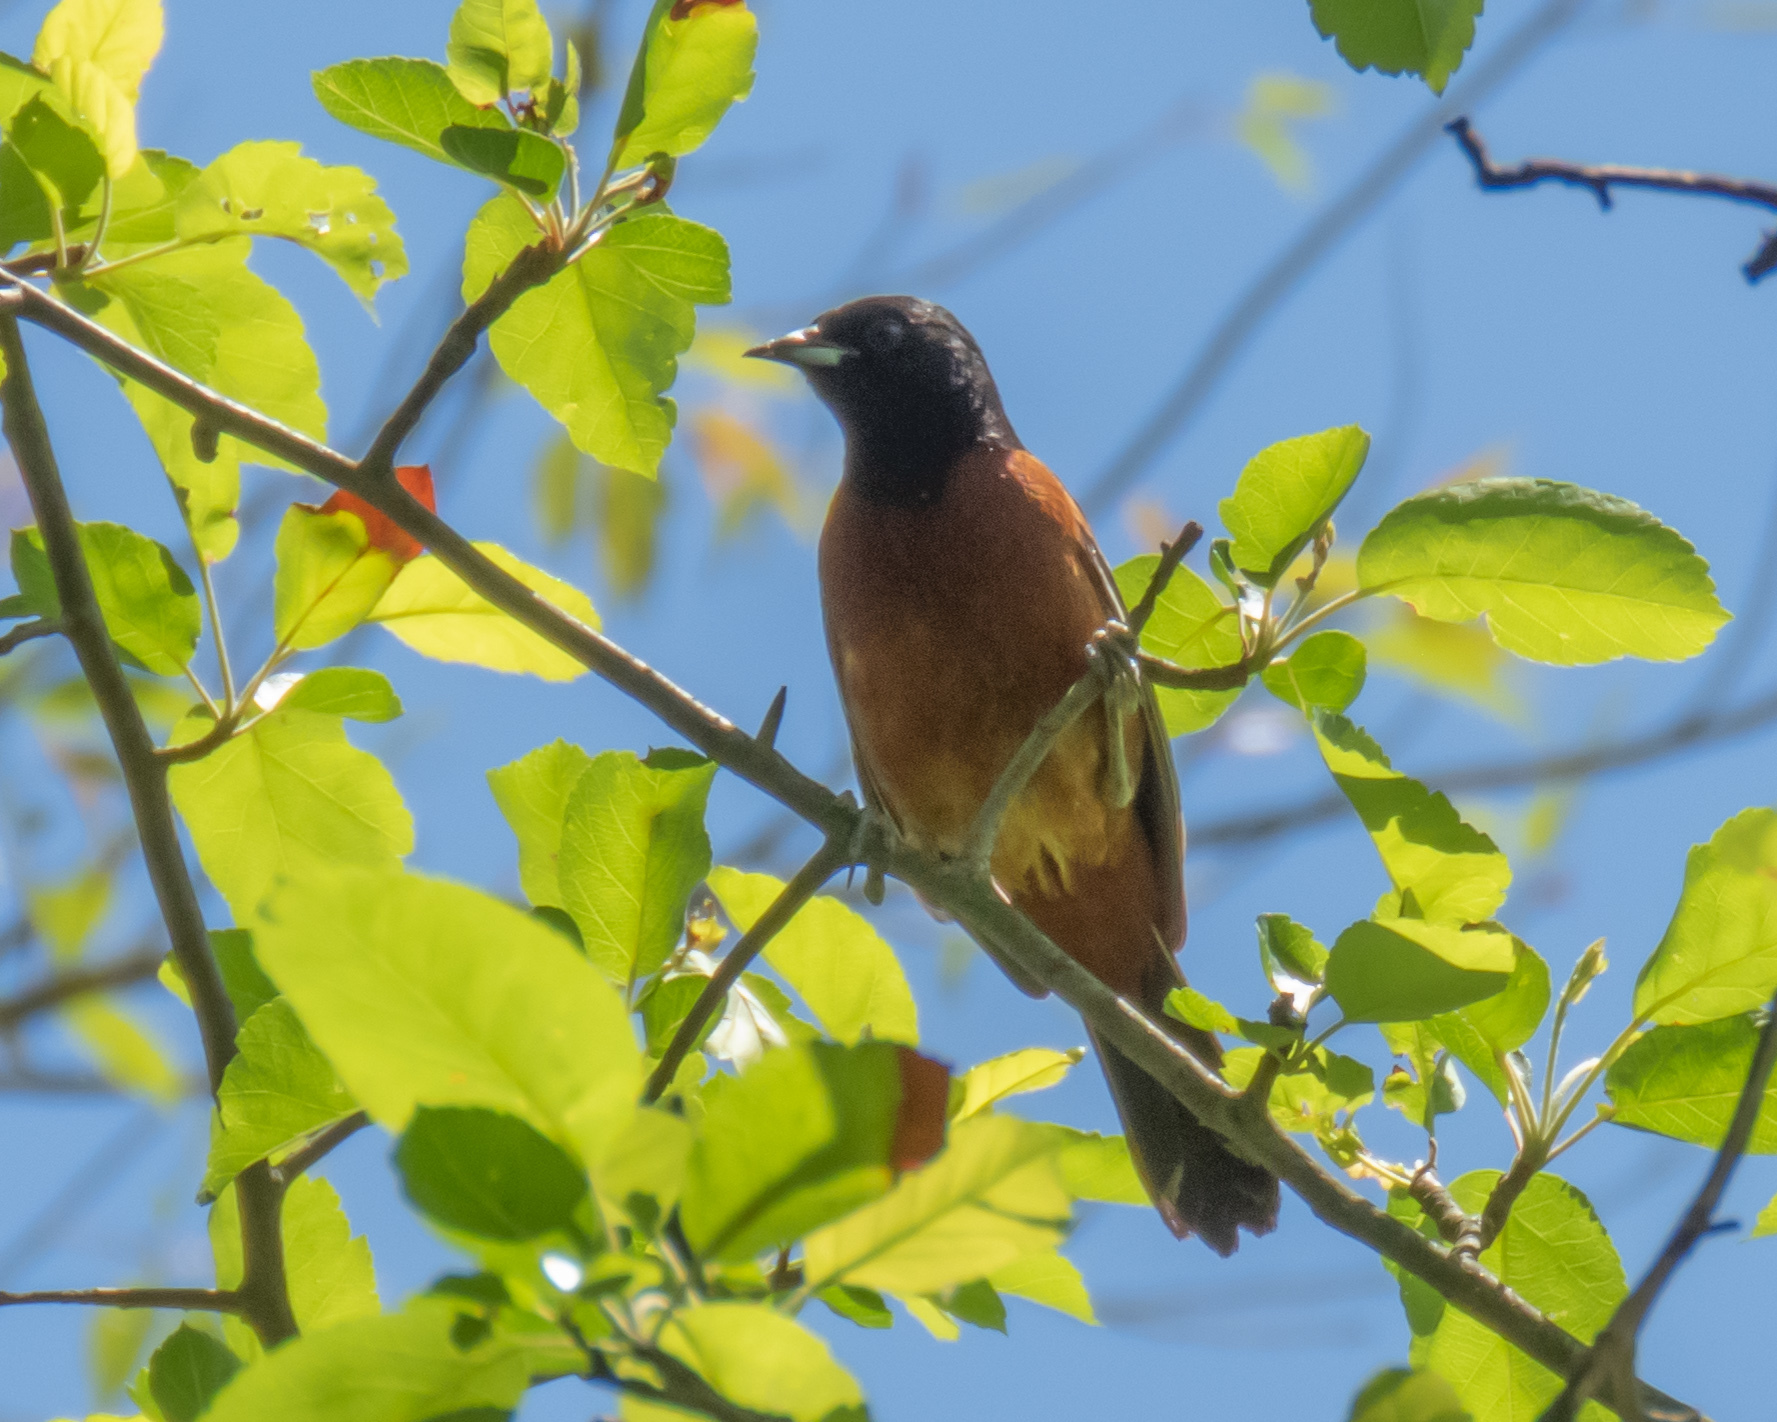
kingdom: Animalia
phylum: Chordata
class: Aves
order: Passeriformes
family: Icteridae
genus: Icterus
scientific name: Icterus spurius
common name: Orchard oriole
